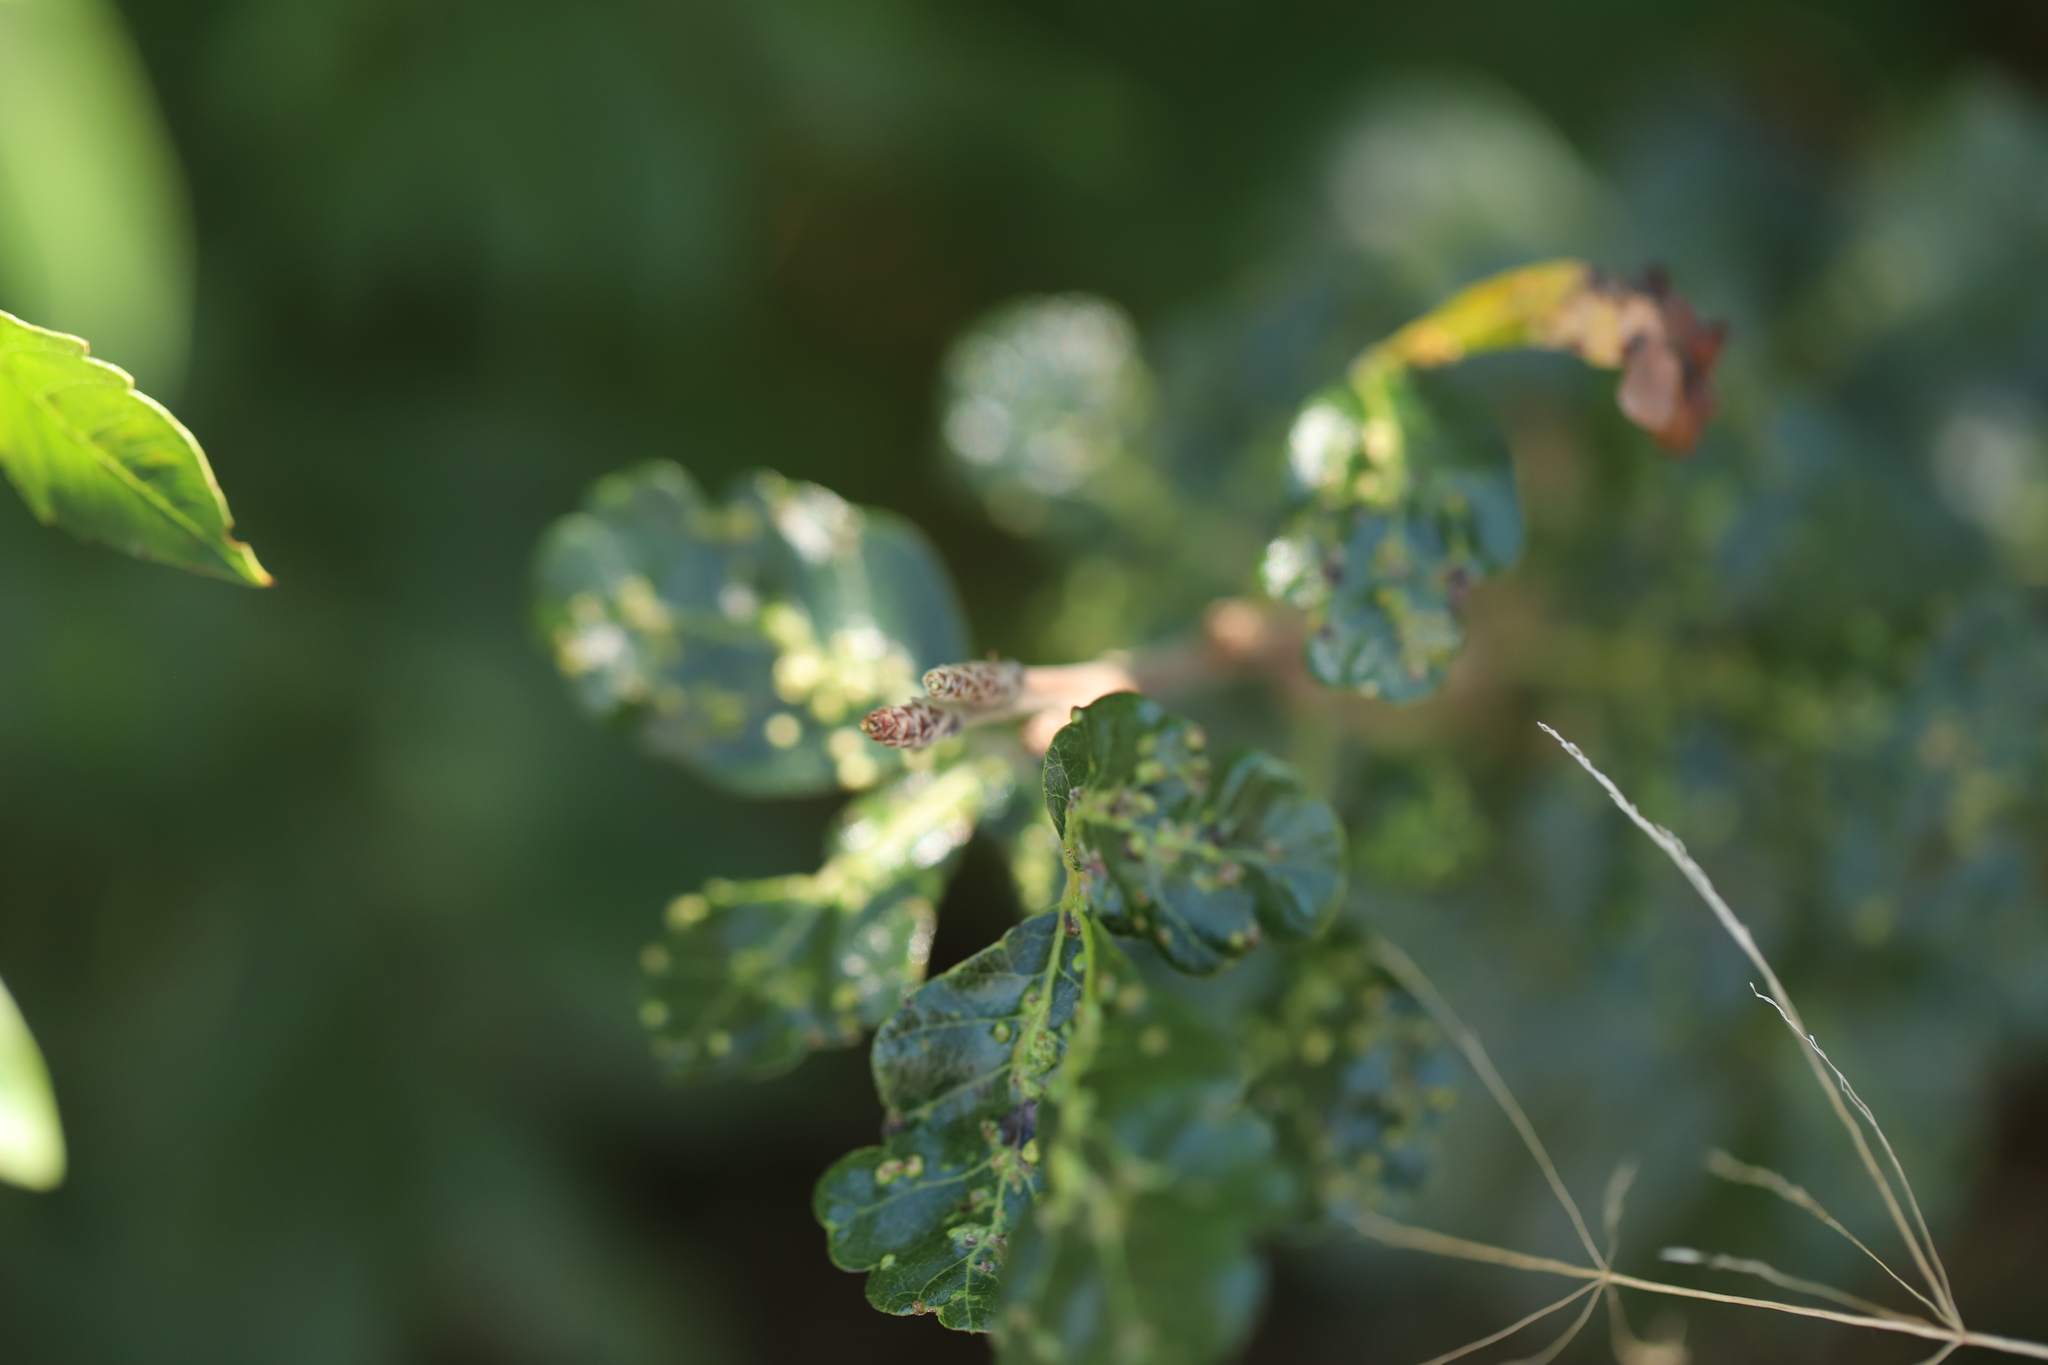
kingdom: Animalia
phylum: Arthropoda
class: Arachnida
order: Trombidiformes
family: Eriophyidae
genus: Aculops
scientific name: Aculops
